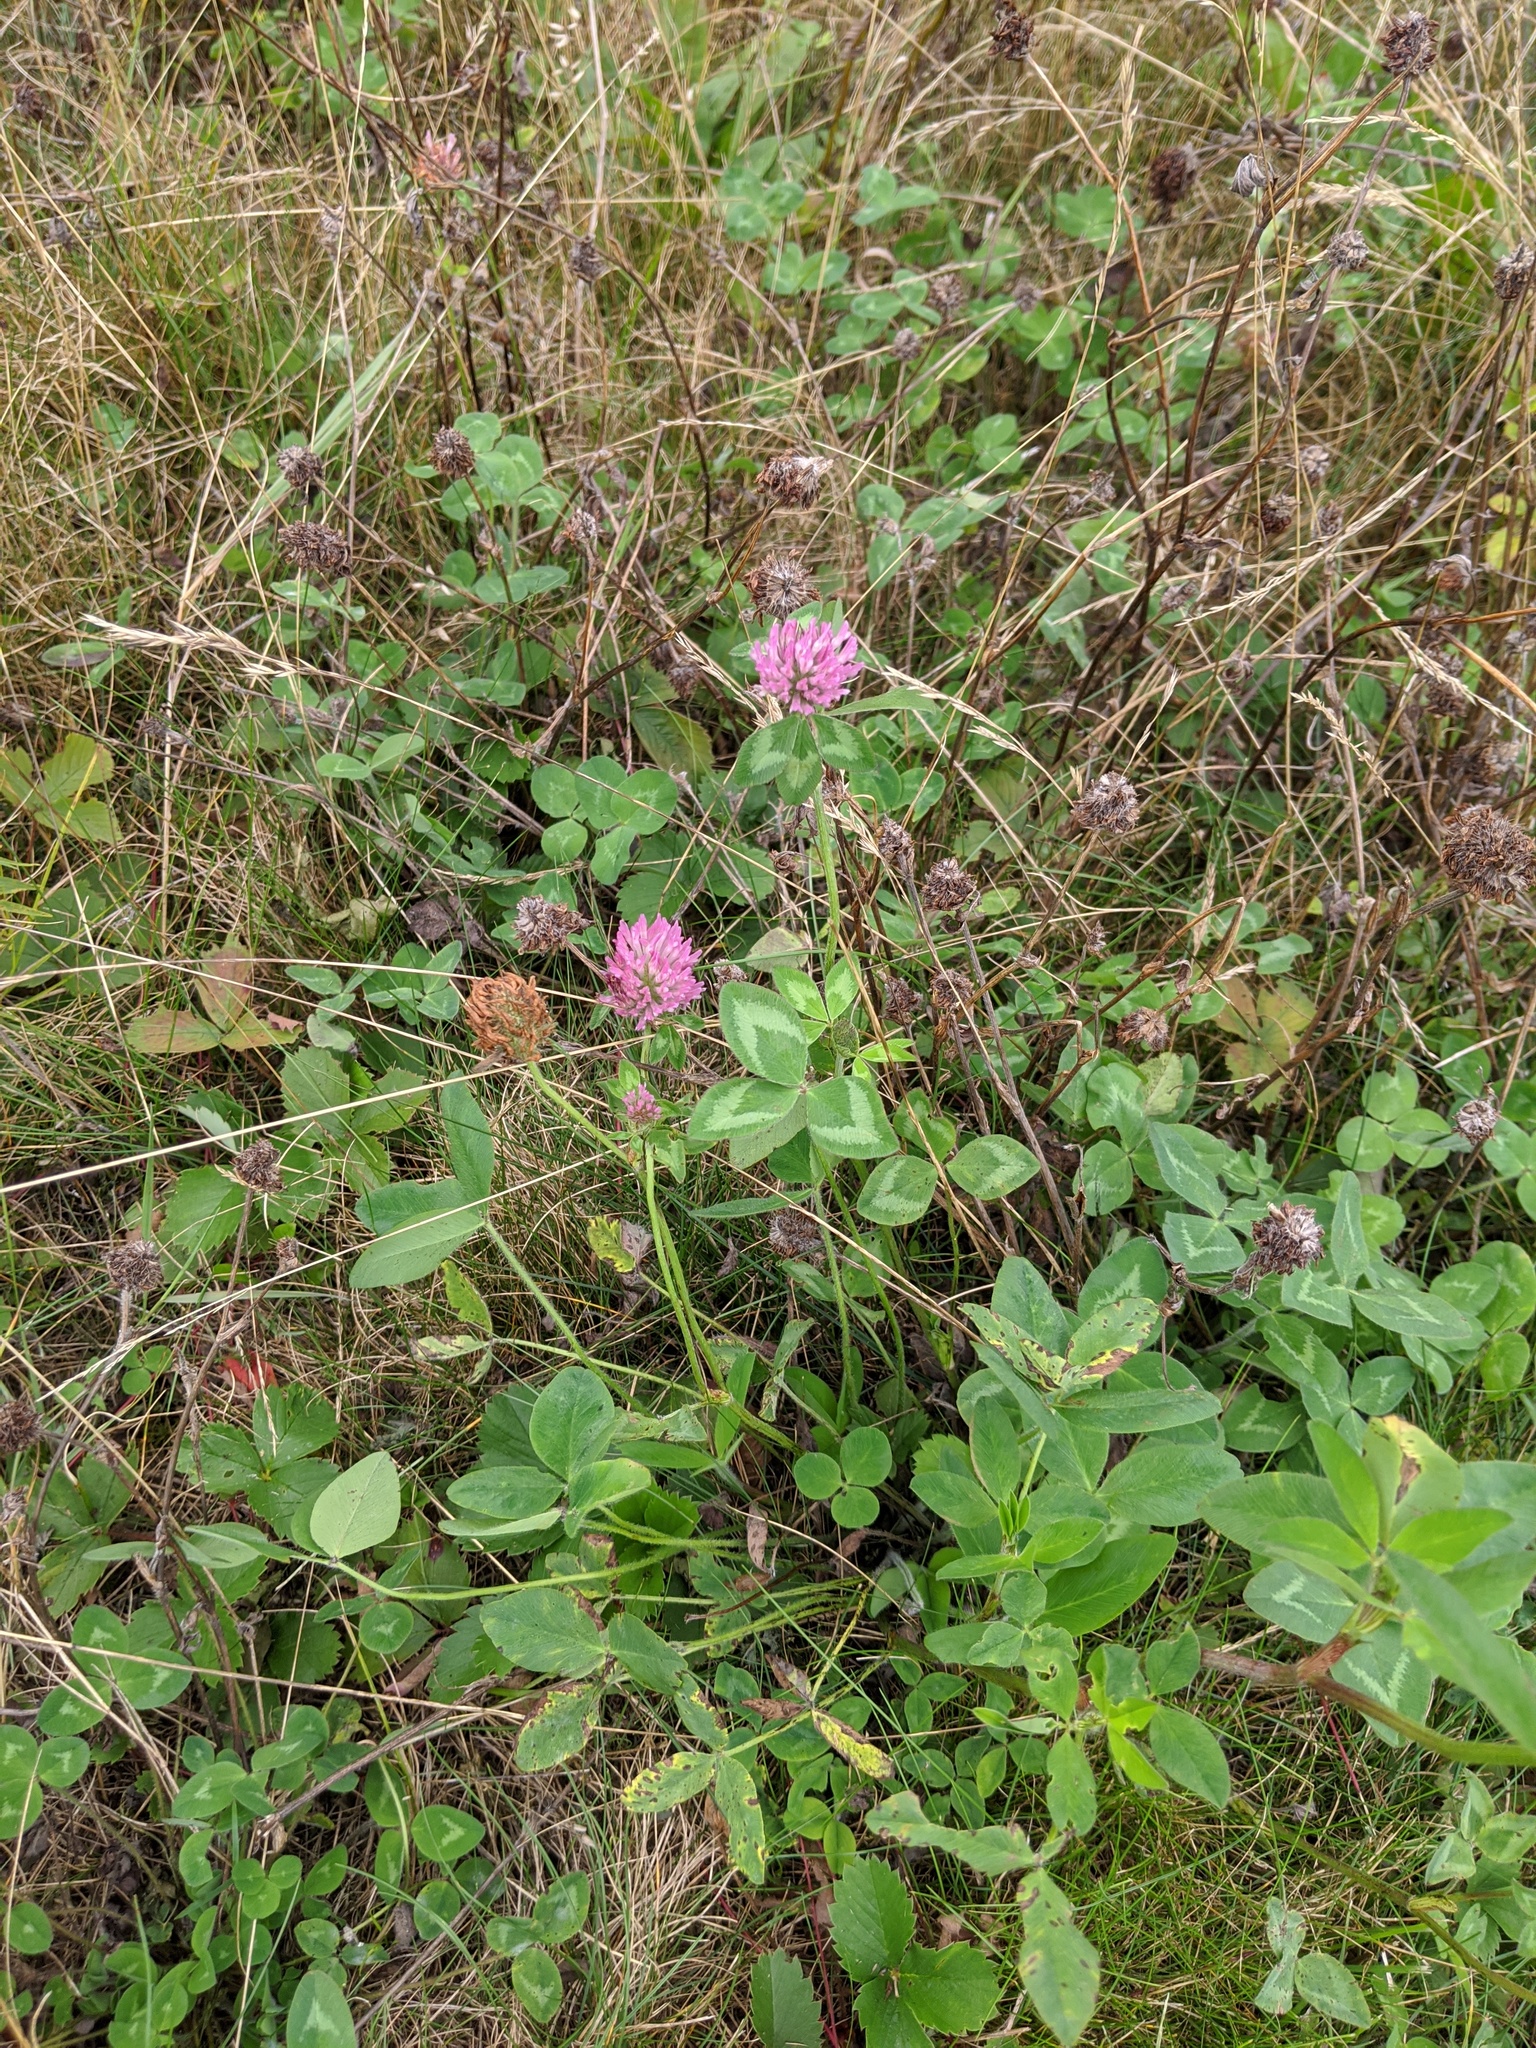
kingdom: Plantae
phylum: Tracheophyta
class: Magnoliopsida
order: Fabales
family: Fabaceae
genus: Trifolium
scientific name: Trifolium pratense
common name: Red clover
